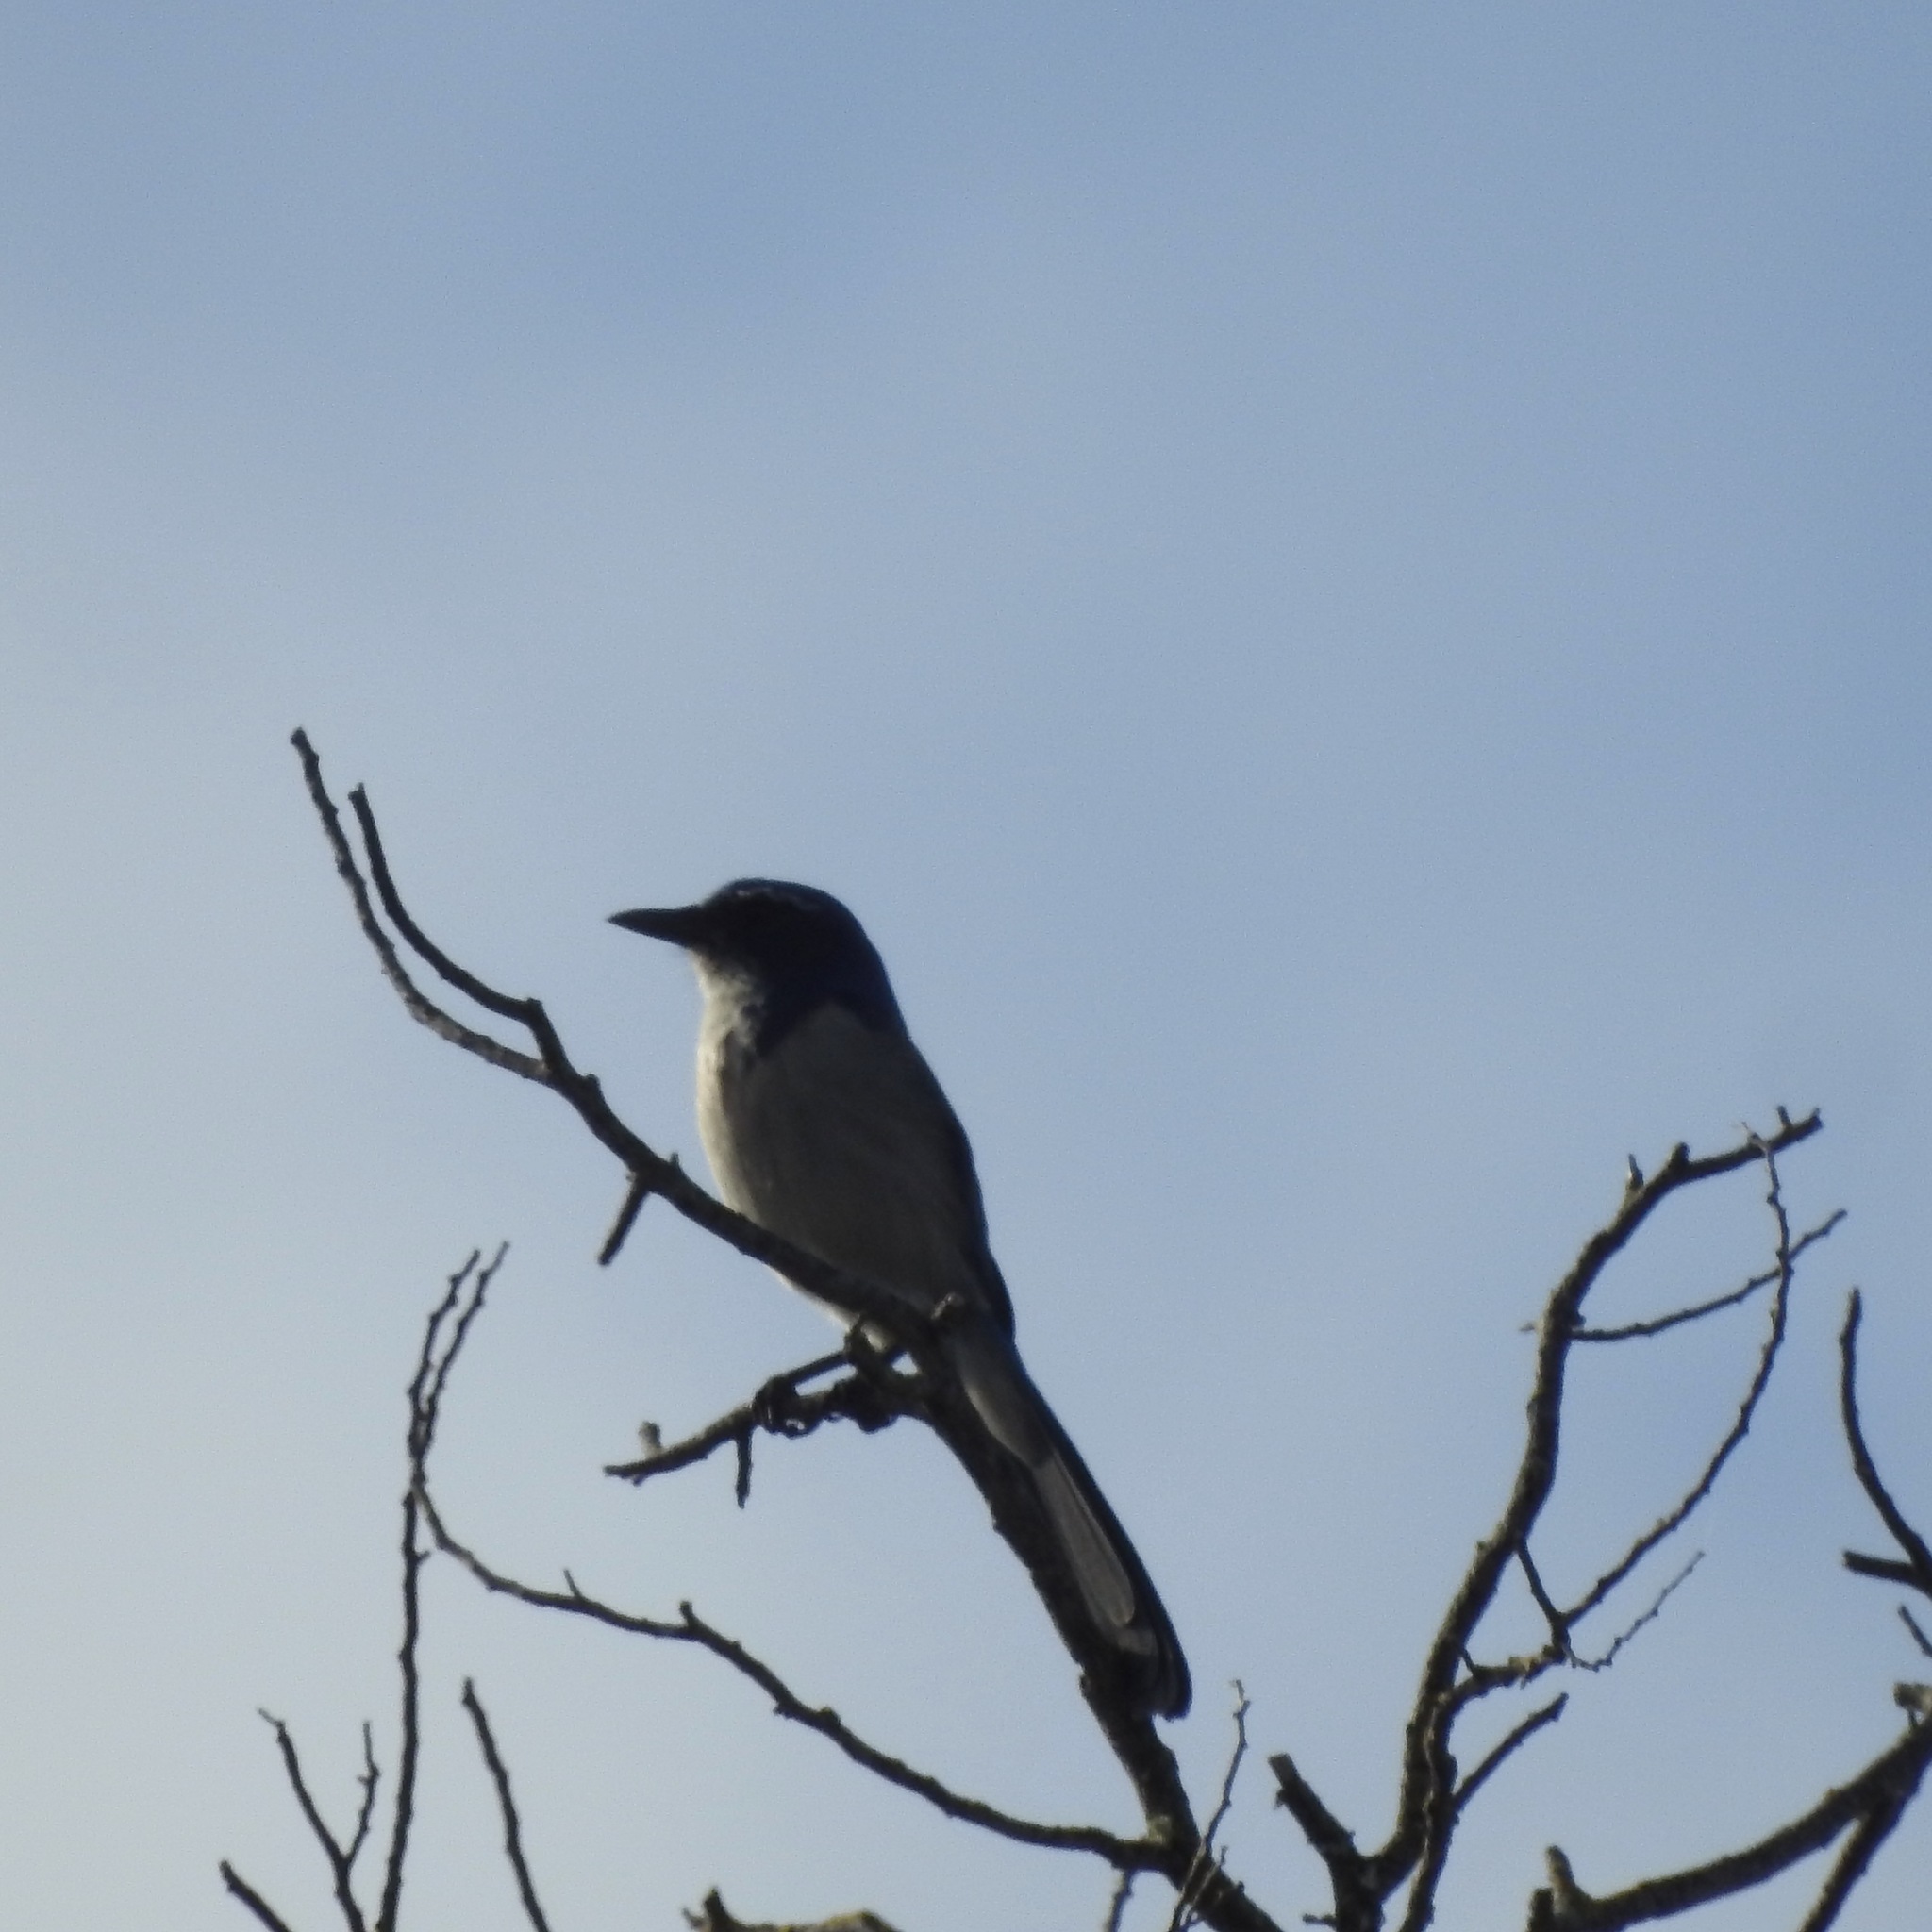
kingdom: Animalia
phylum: Chordata
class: Aves
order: Passeriformes
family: Corvidae
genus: Aphelocoma
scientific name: Aphelocoma californica
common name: California scrub-jay
